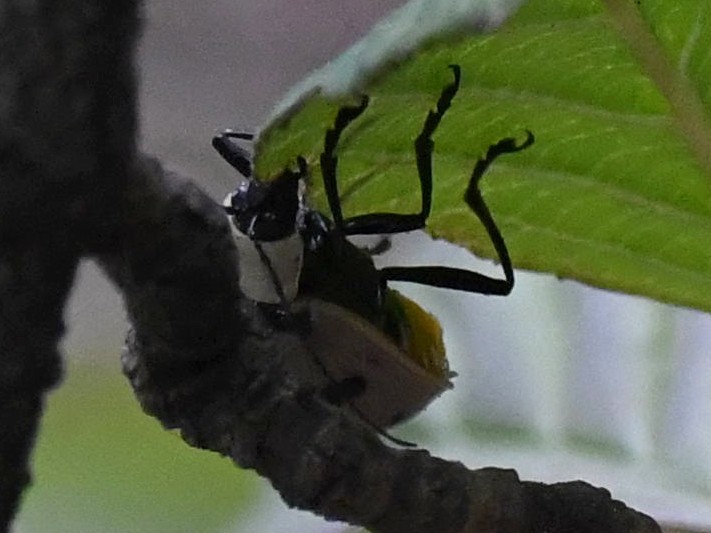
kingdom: Animalia
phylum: Arthropoda
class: Insecta
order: Coleoptera
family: Chrysomelidae
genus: Meristata
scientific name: Meristata
